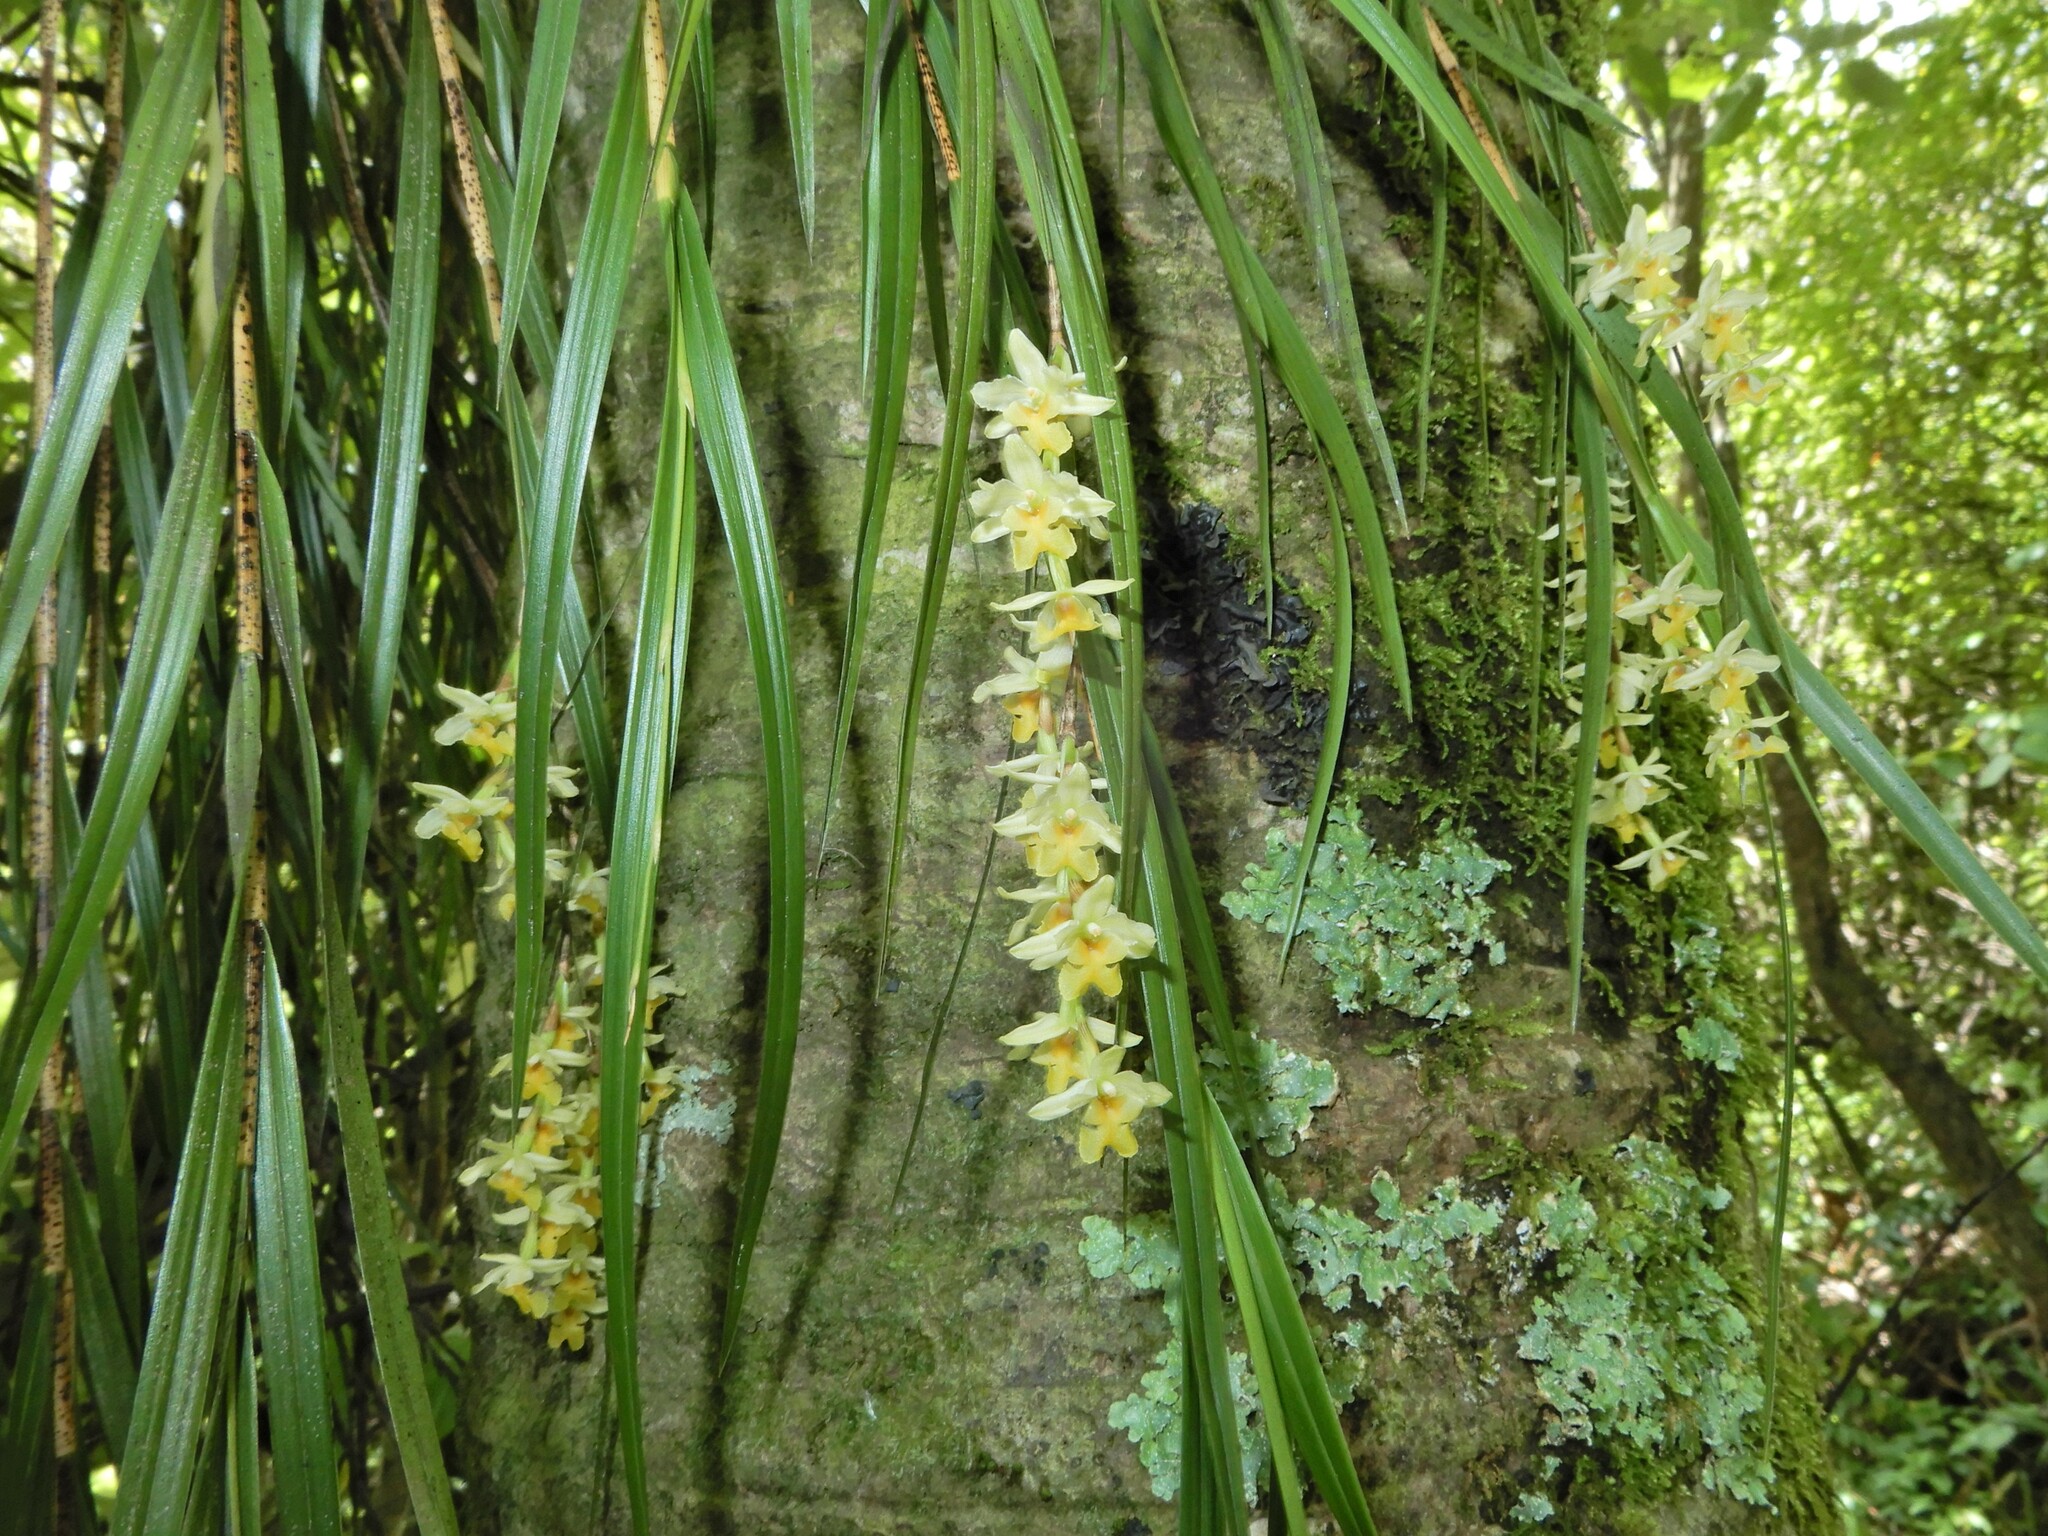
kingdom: Plantae
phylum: Tracheophyta
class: Liliopsida
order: Asparagales
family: Orchidaceae
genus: Earina
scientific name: Earina mucronata
